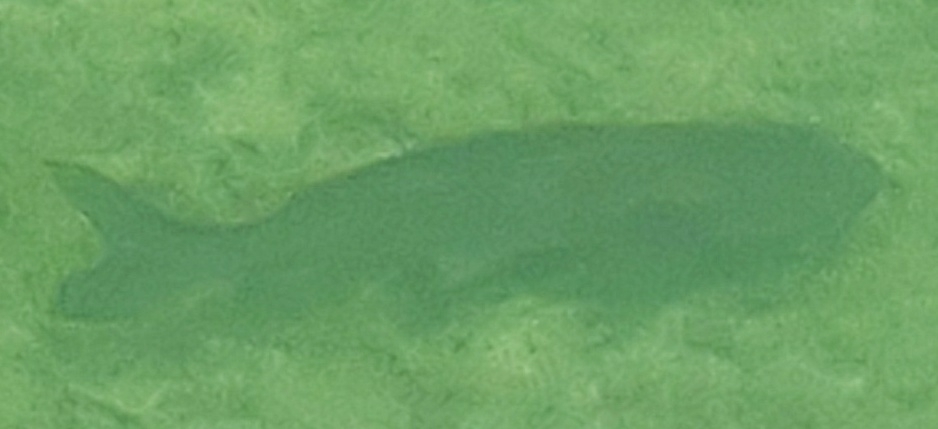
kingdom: Animalia
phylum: Chordata
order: Siluriformes
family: Ictaluridae
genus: Ictalurus
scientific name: Ictalurus punctatus
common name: Channel catfish
